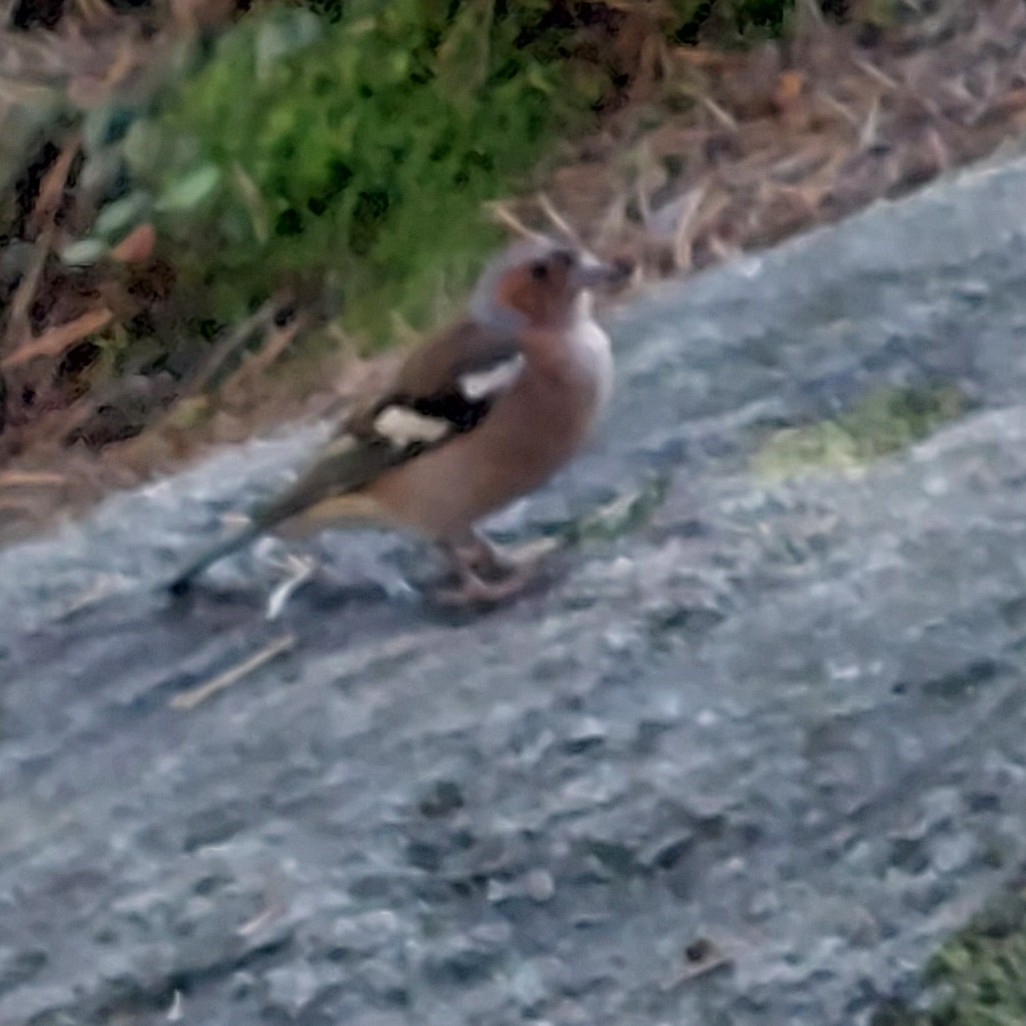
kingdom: Animalia
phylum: Chordata
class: Aves
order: Passeriformes
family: Fringillidae
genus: Fringilla
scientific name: Fringilla coelebs
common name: Common chaffinch
